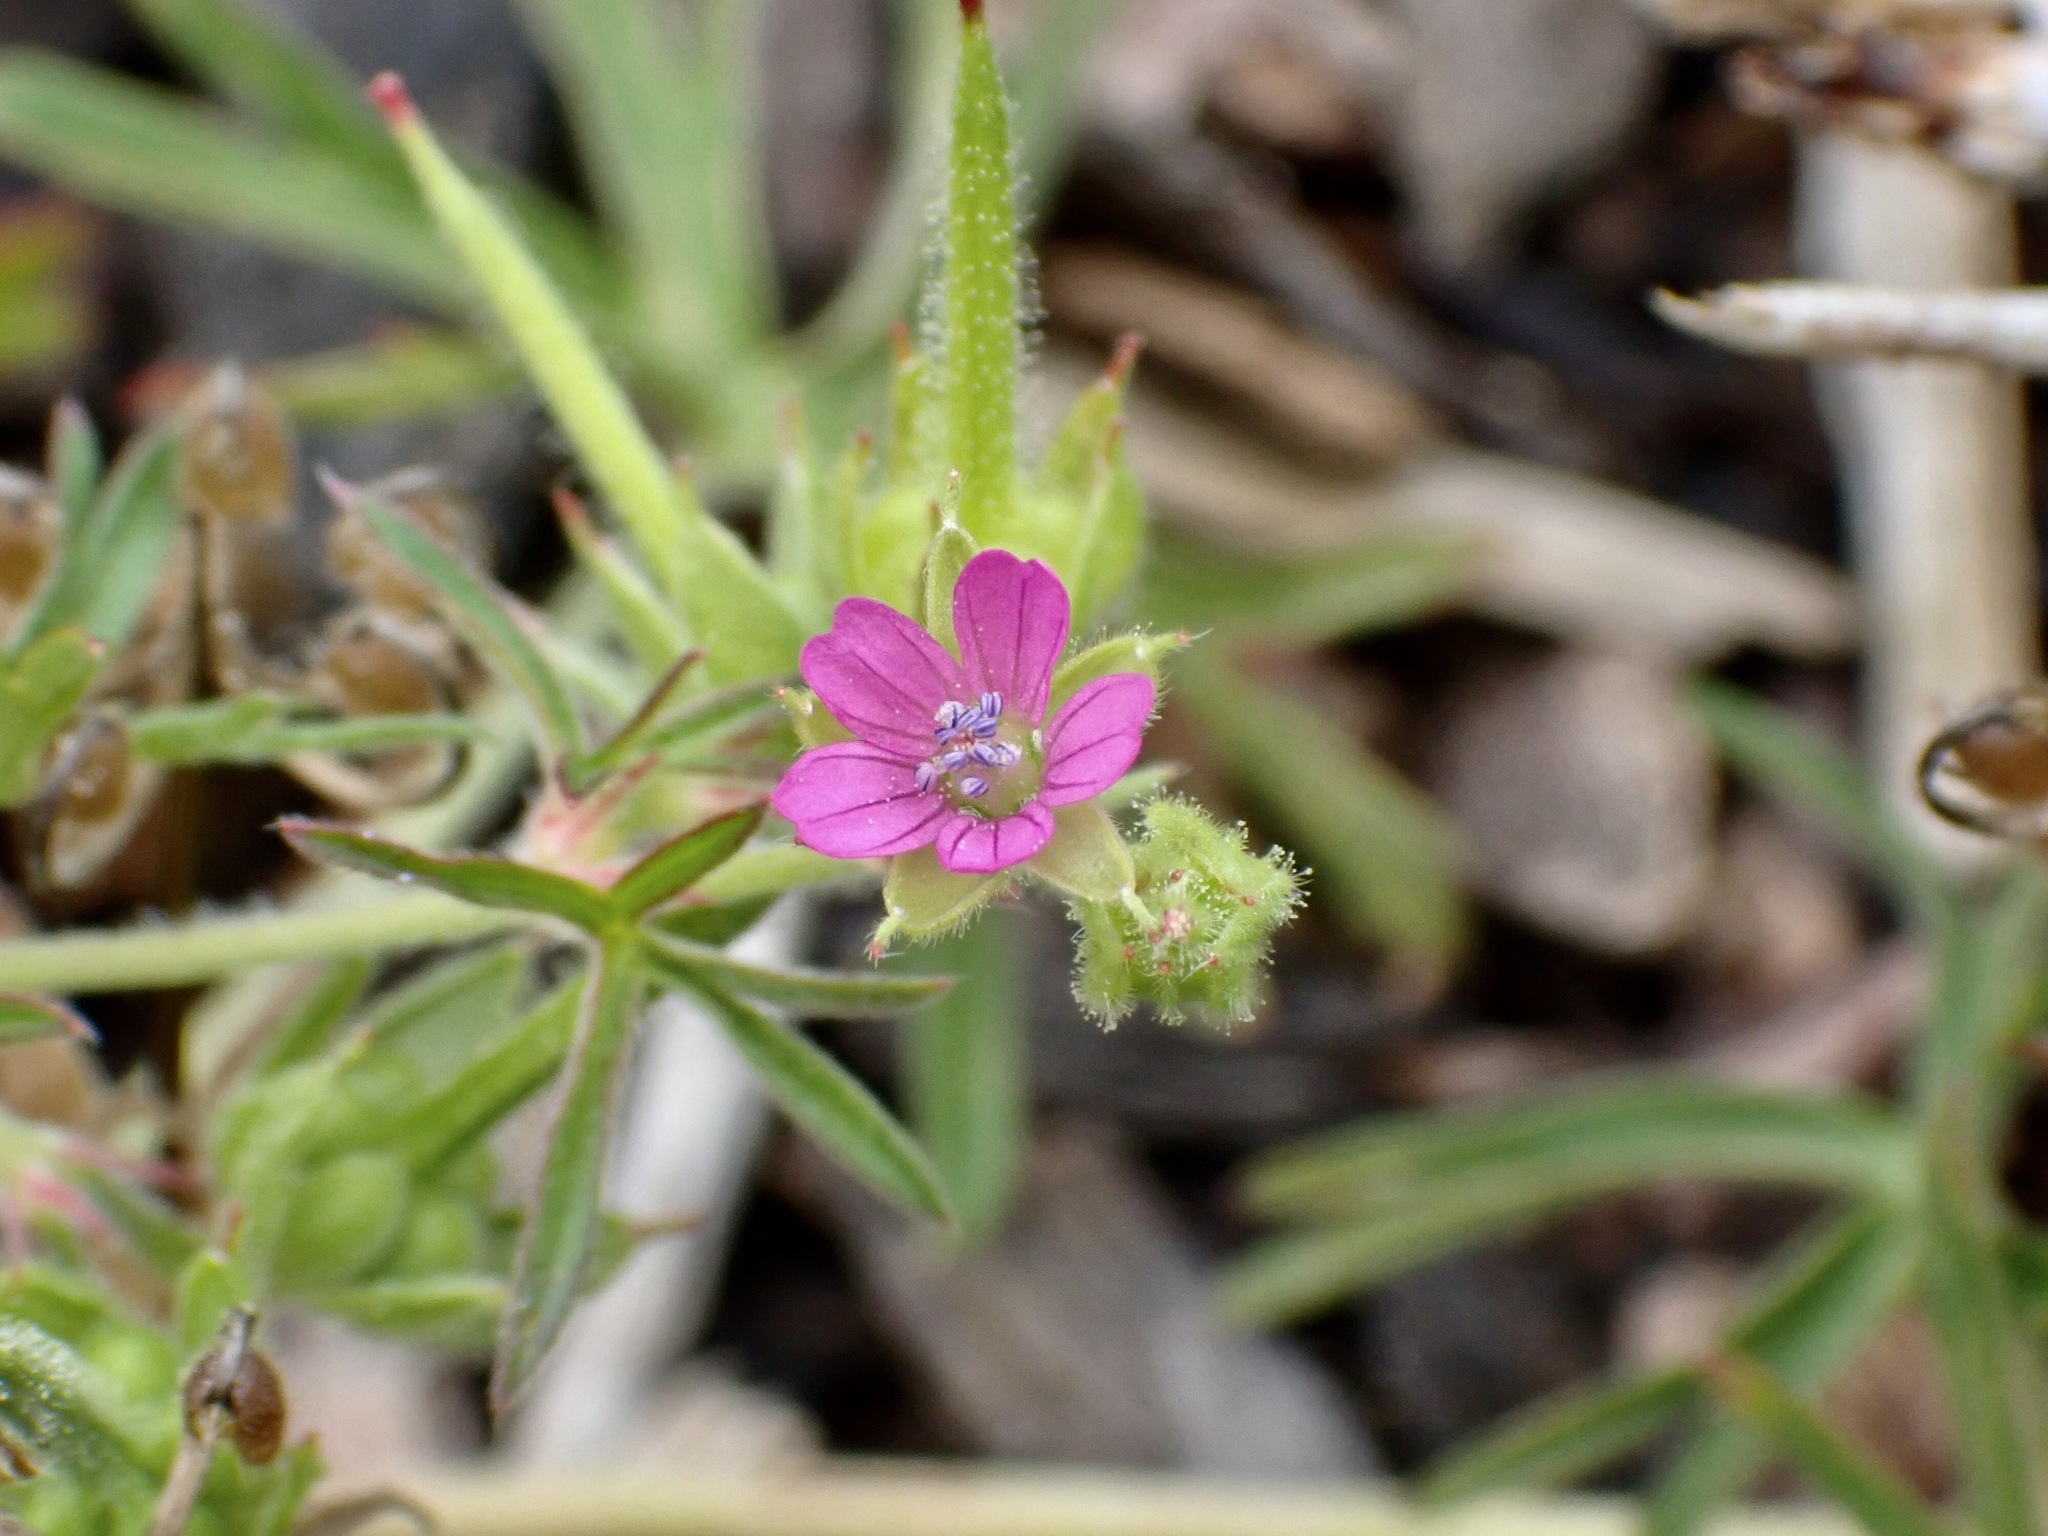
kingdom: Plantae
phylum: Tracheophyta
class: Magnoliopsida
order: Geraniales
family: Geraniaceae
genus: Geranium
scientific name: Geranium dissectum
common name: Cut-leaved crane's-bill
